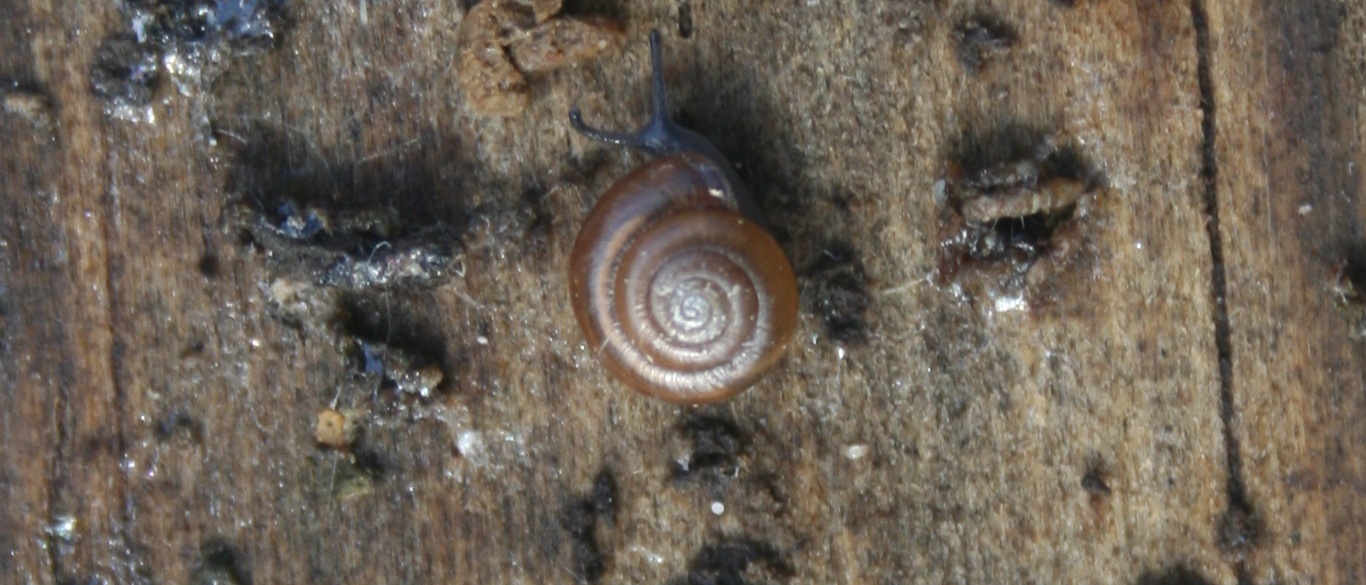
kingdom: Animalia
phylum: Mollusca
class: Gastropoda
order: Stylommatophora
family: Oxychilidae
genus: Oxychilus
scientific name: Oxychilus
